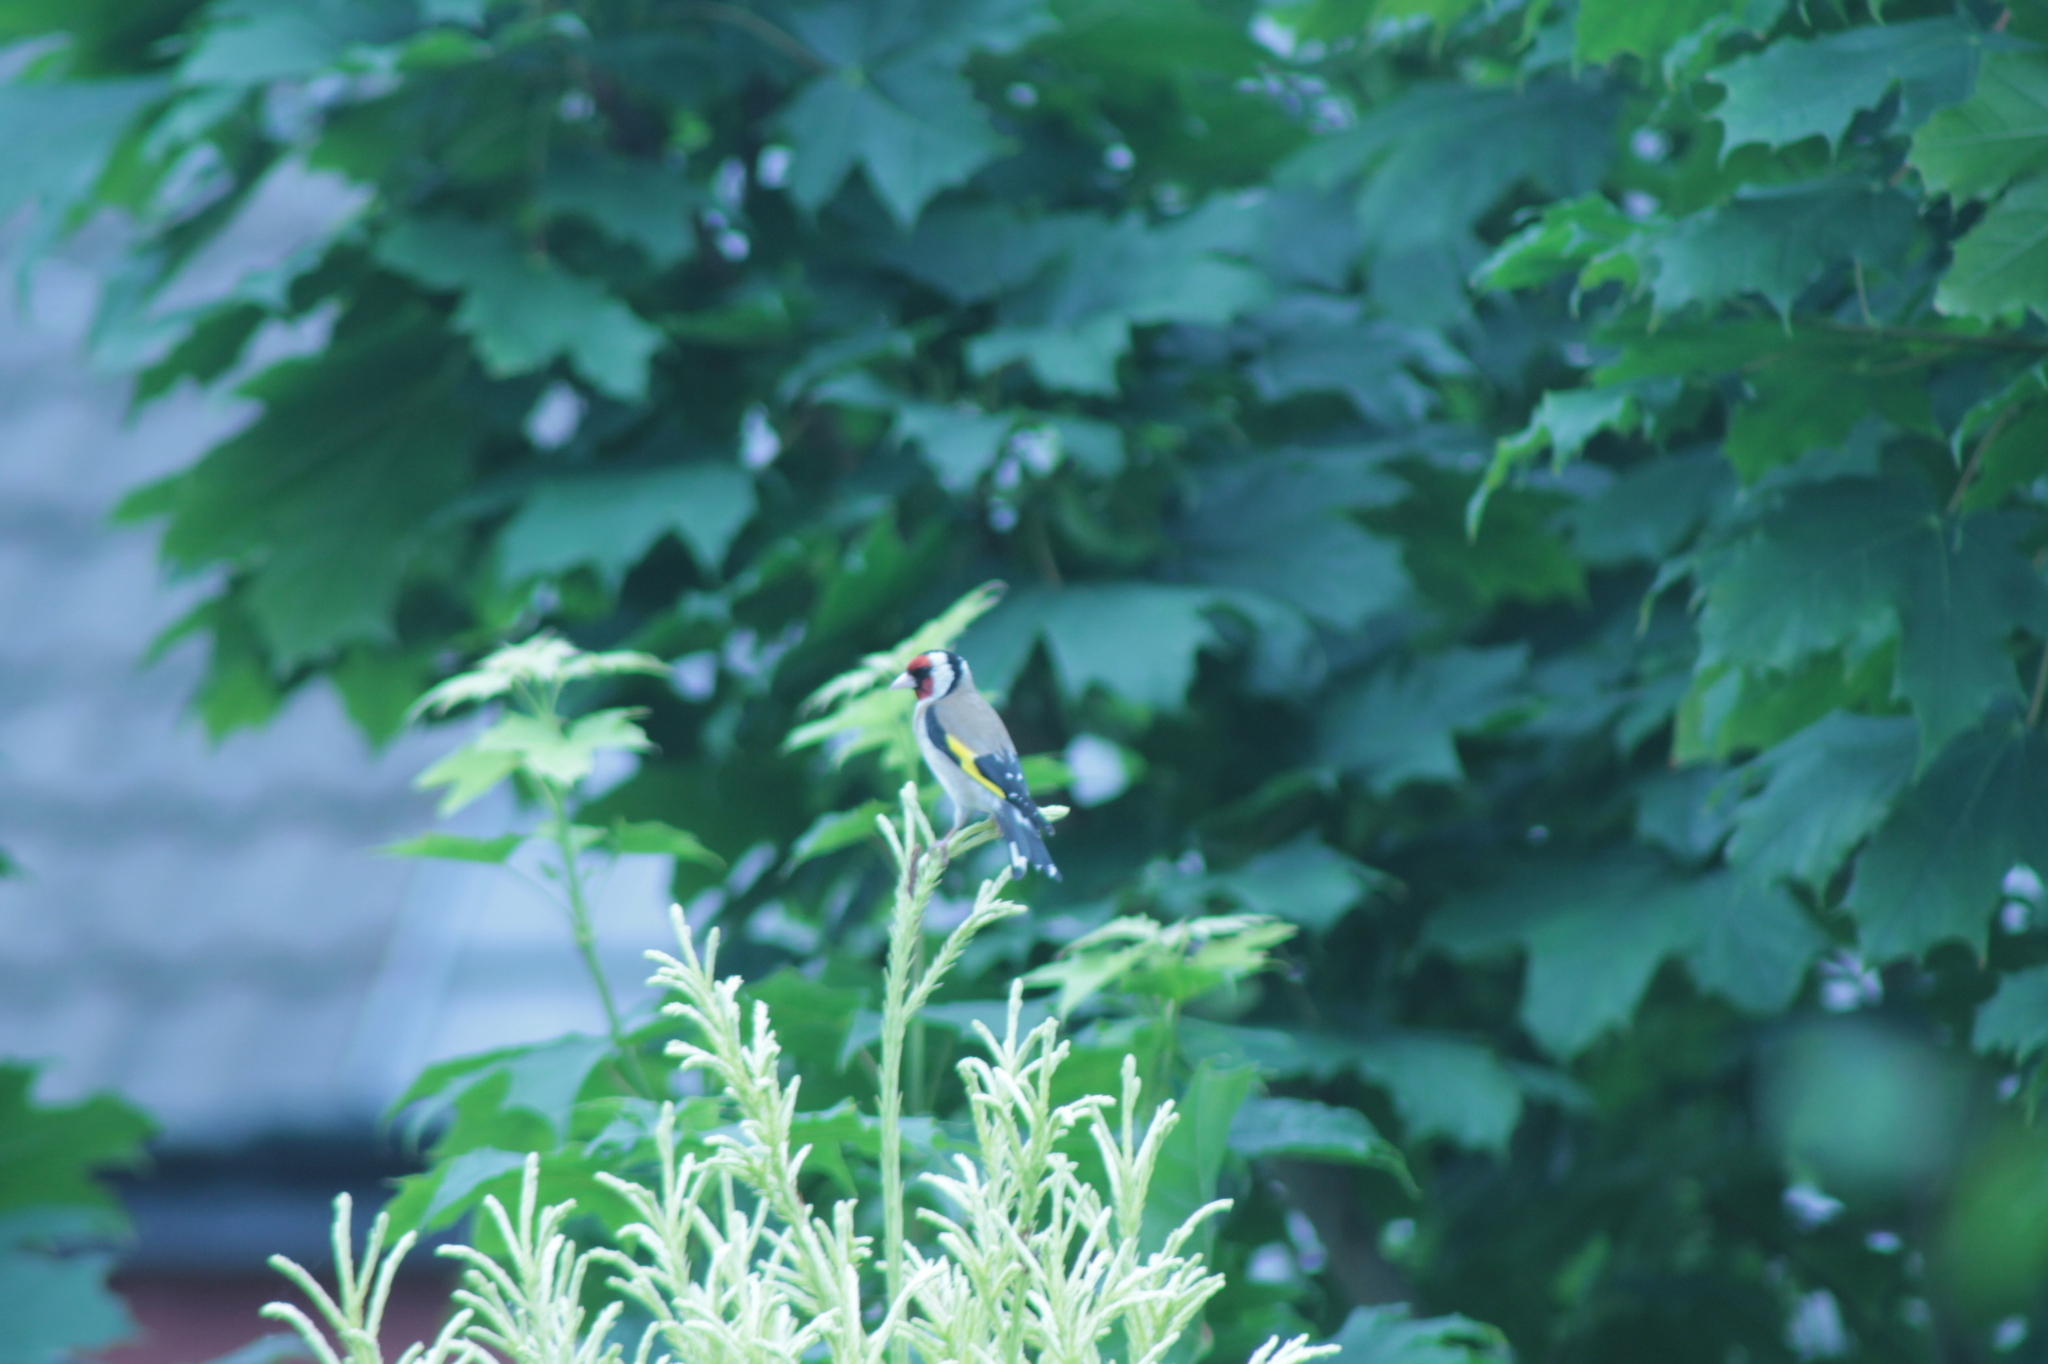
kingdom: Animalia
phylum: Chordata
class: Aves
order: Passeriformes
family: Fringillidae
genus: Carduelis
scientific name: Carduelis carduelis
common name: European goldfinch
